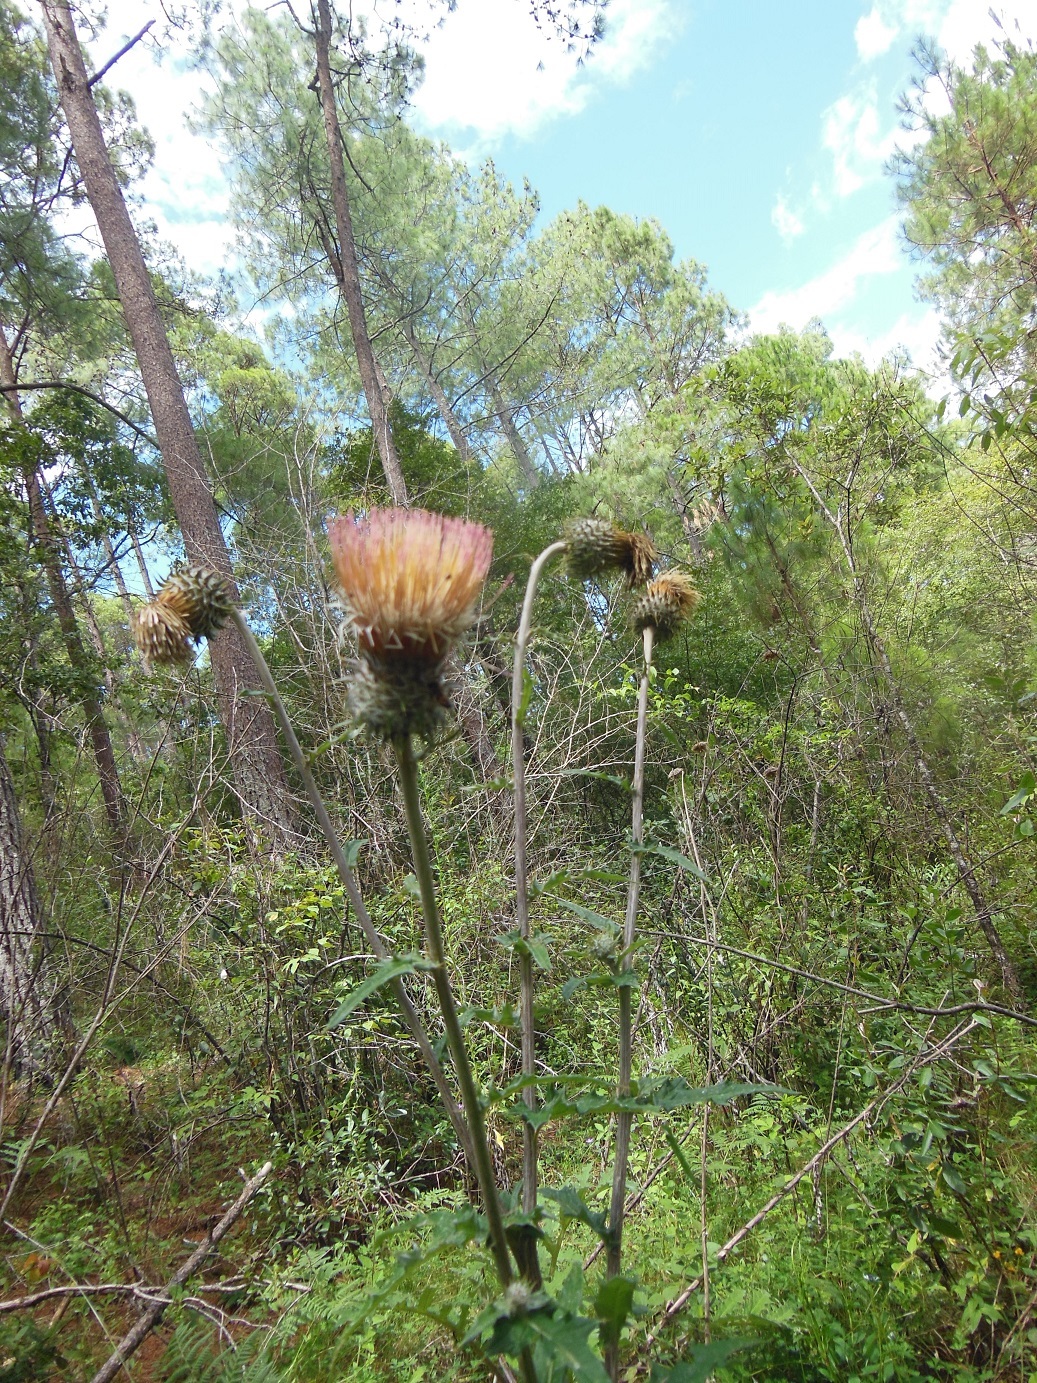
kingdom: Plantae
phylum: Tracheophyta
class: Magnoliopsida
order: Asterales
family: Asteraceae
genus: Cirsium
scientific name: Cirsium subcoriaceum
